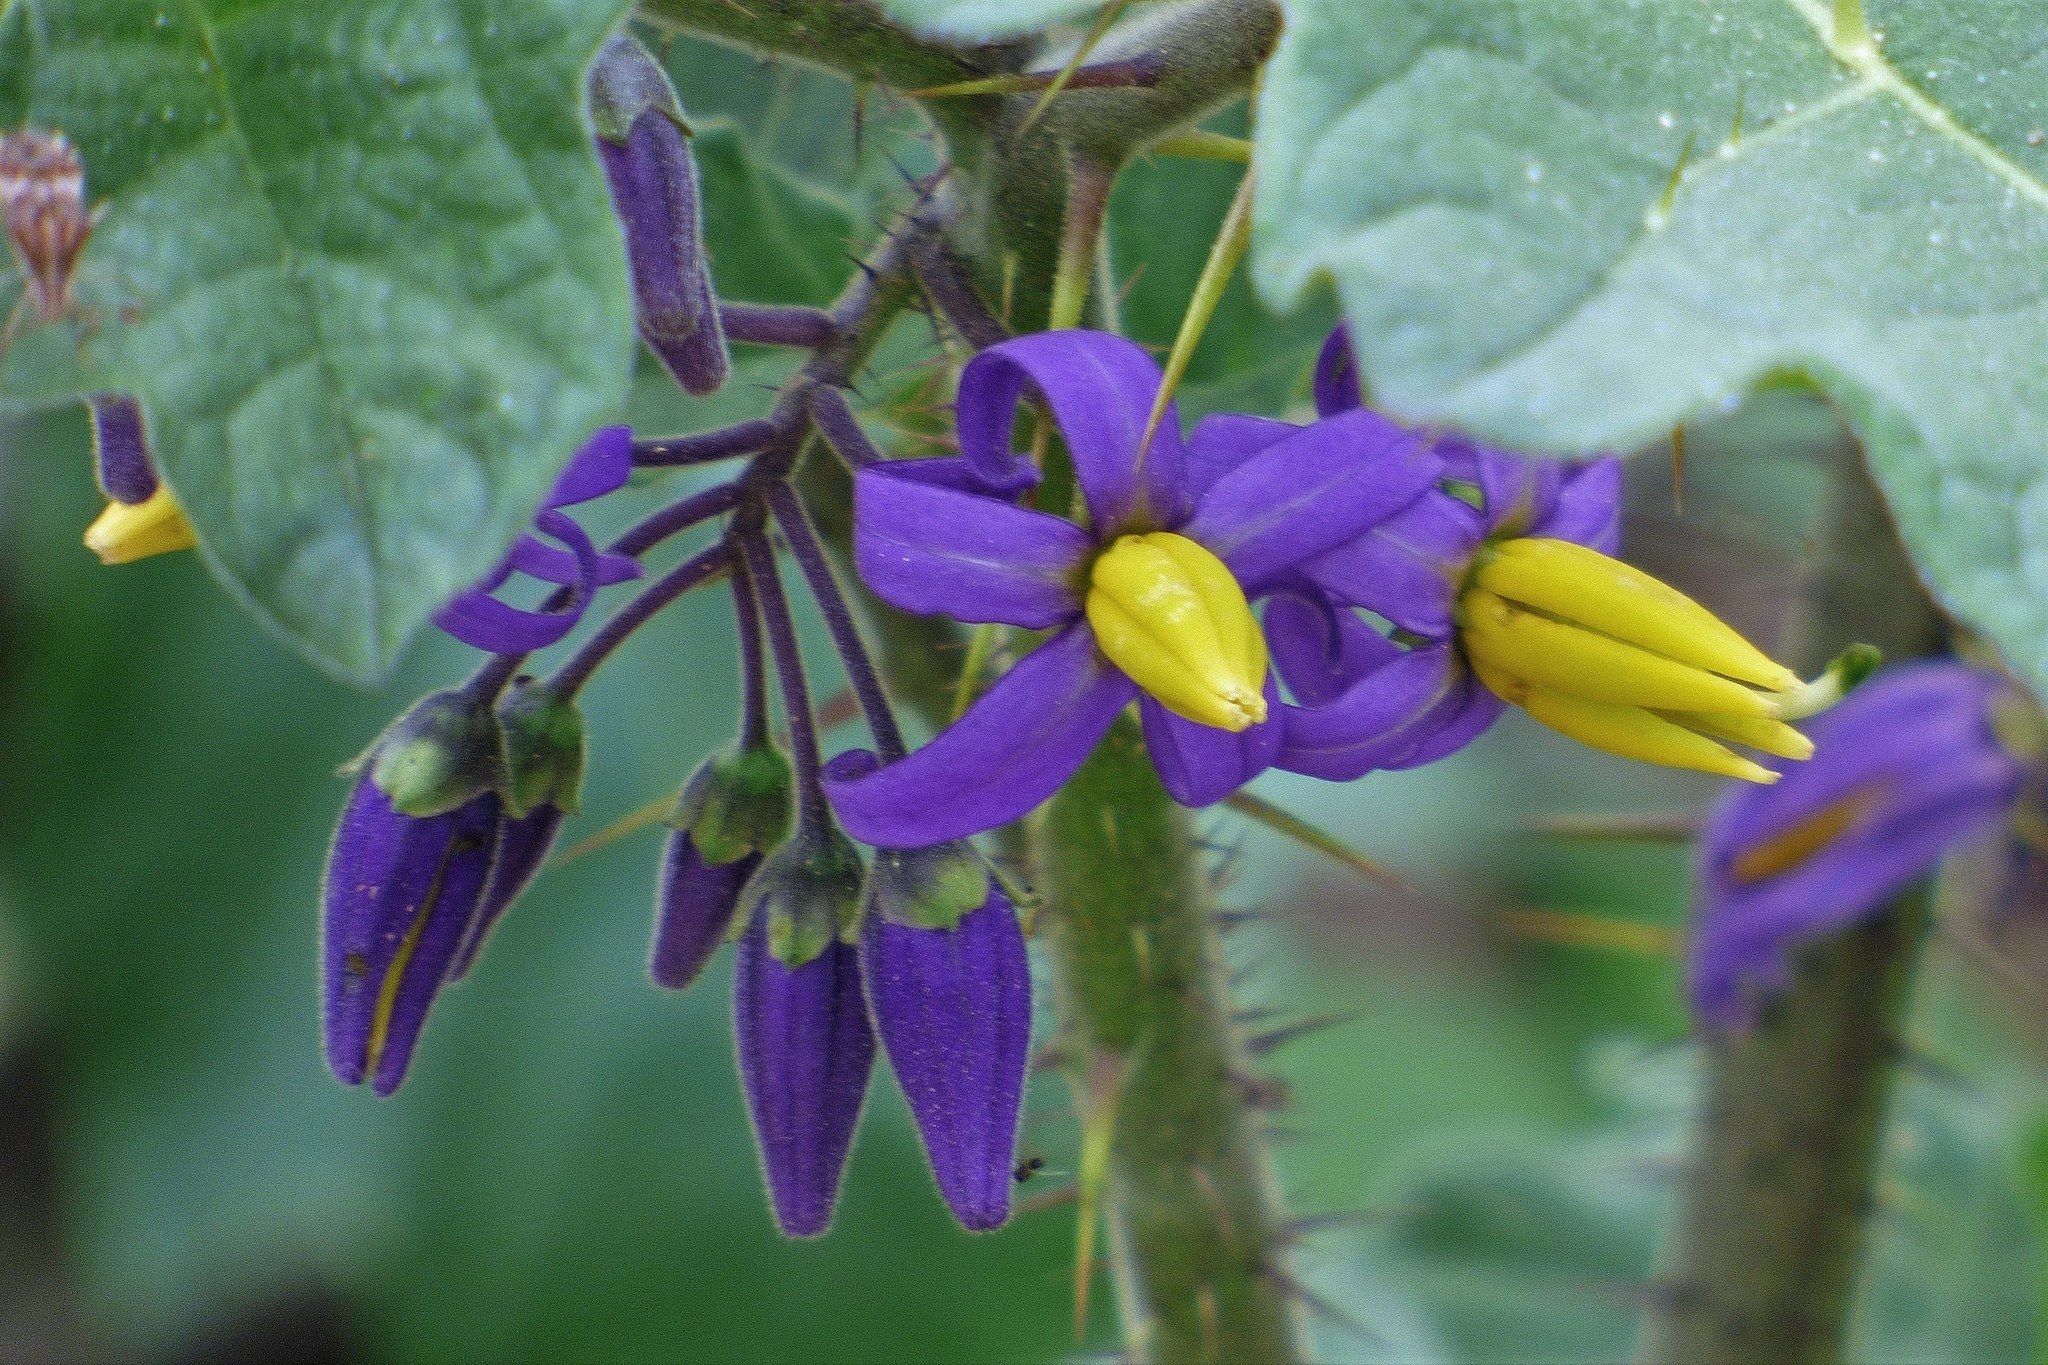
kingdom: Plantae
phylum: Tracheophyta
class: Magnoliopsida
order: Solanales
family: Solanaceae
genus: Solanum
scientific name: Solanum palinacanthum
